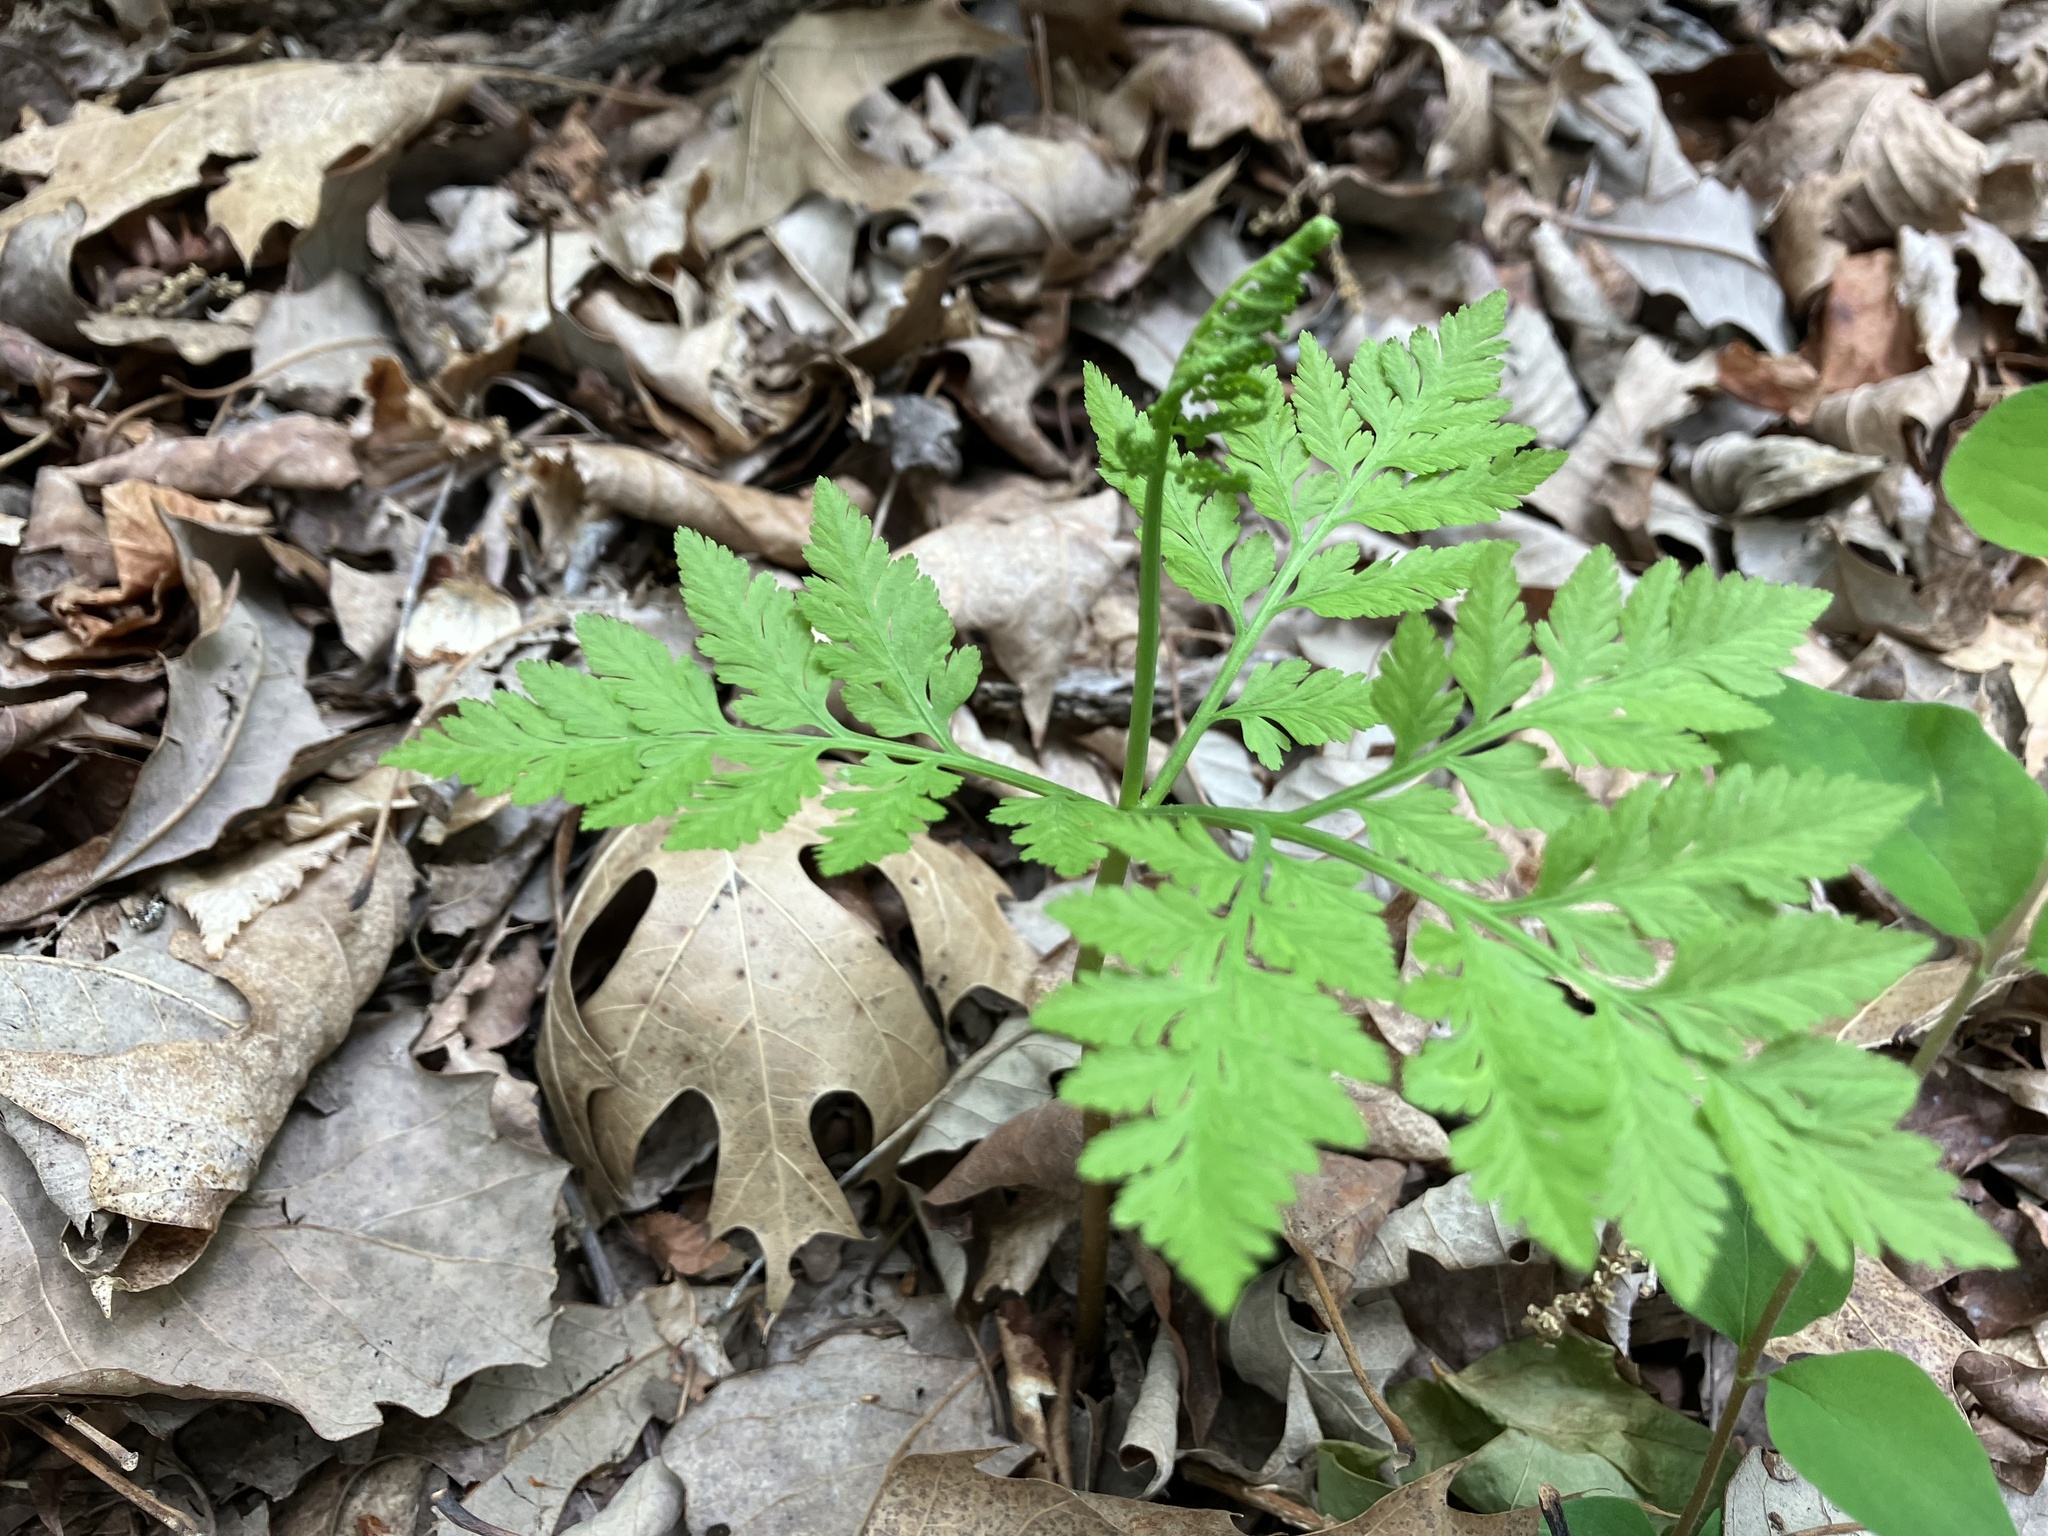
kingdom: Plantae
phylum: Tracheophyta
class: Polypodiopsida
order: Ophioglossales
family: Ophioglossaceae
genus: Botrypus
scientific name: Botrypus virginianus
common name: Common grapefern
